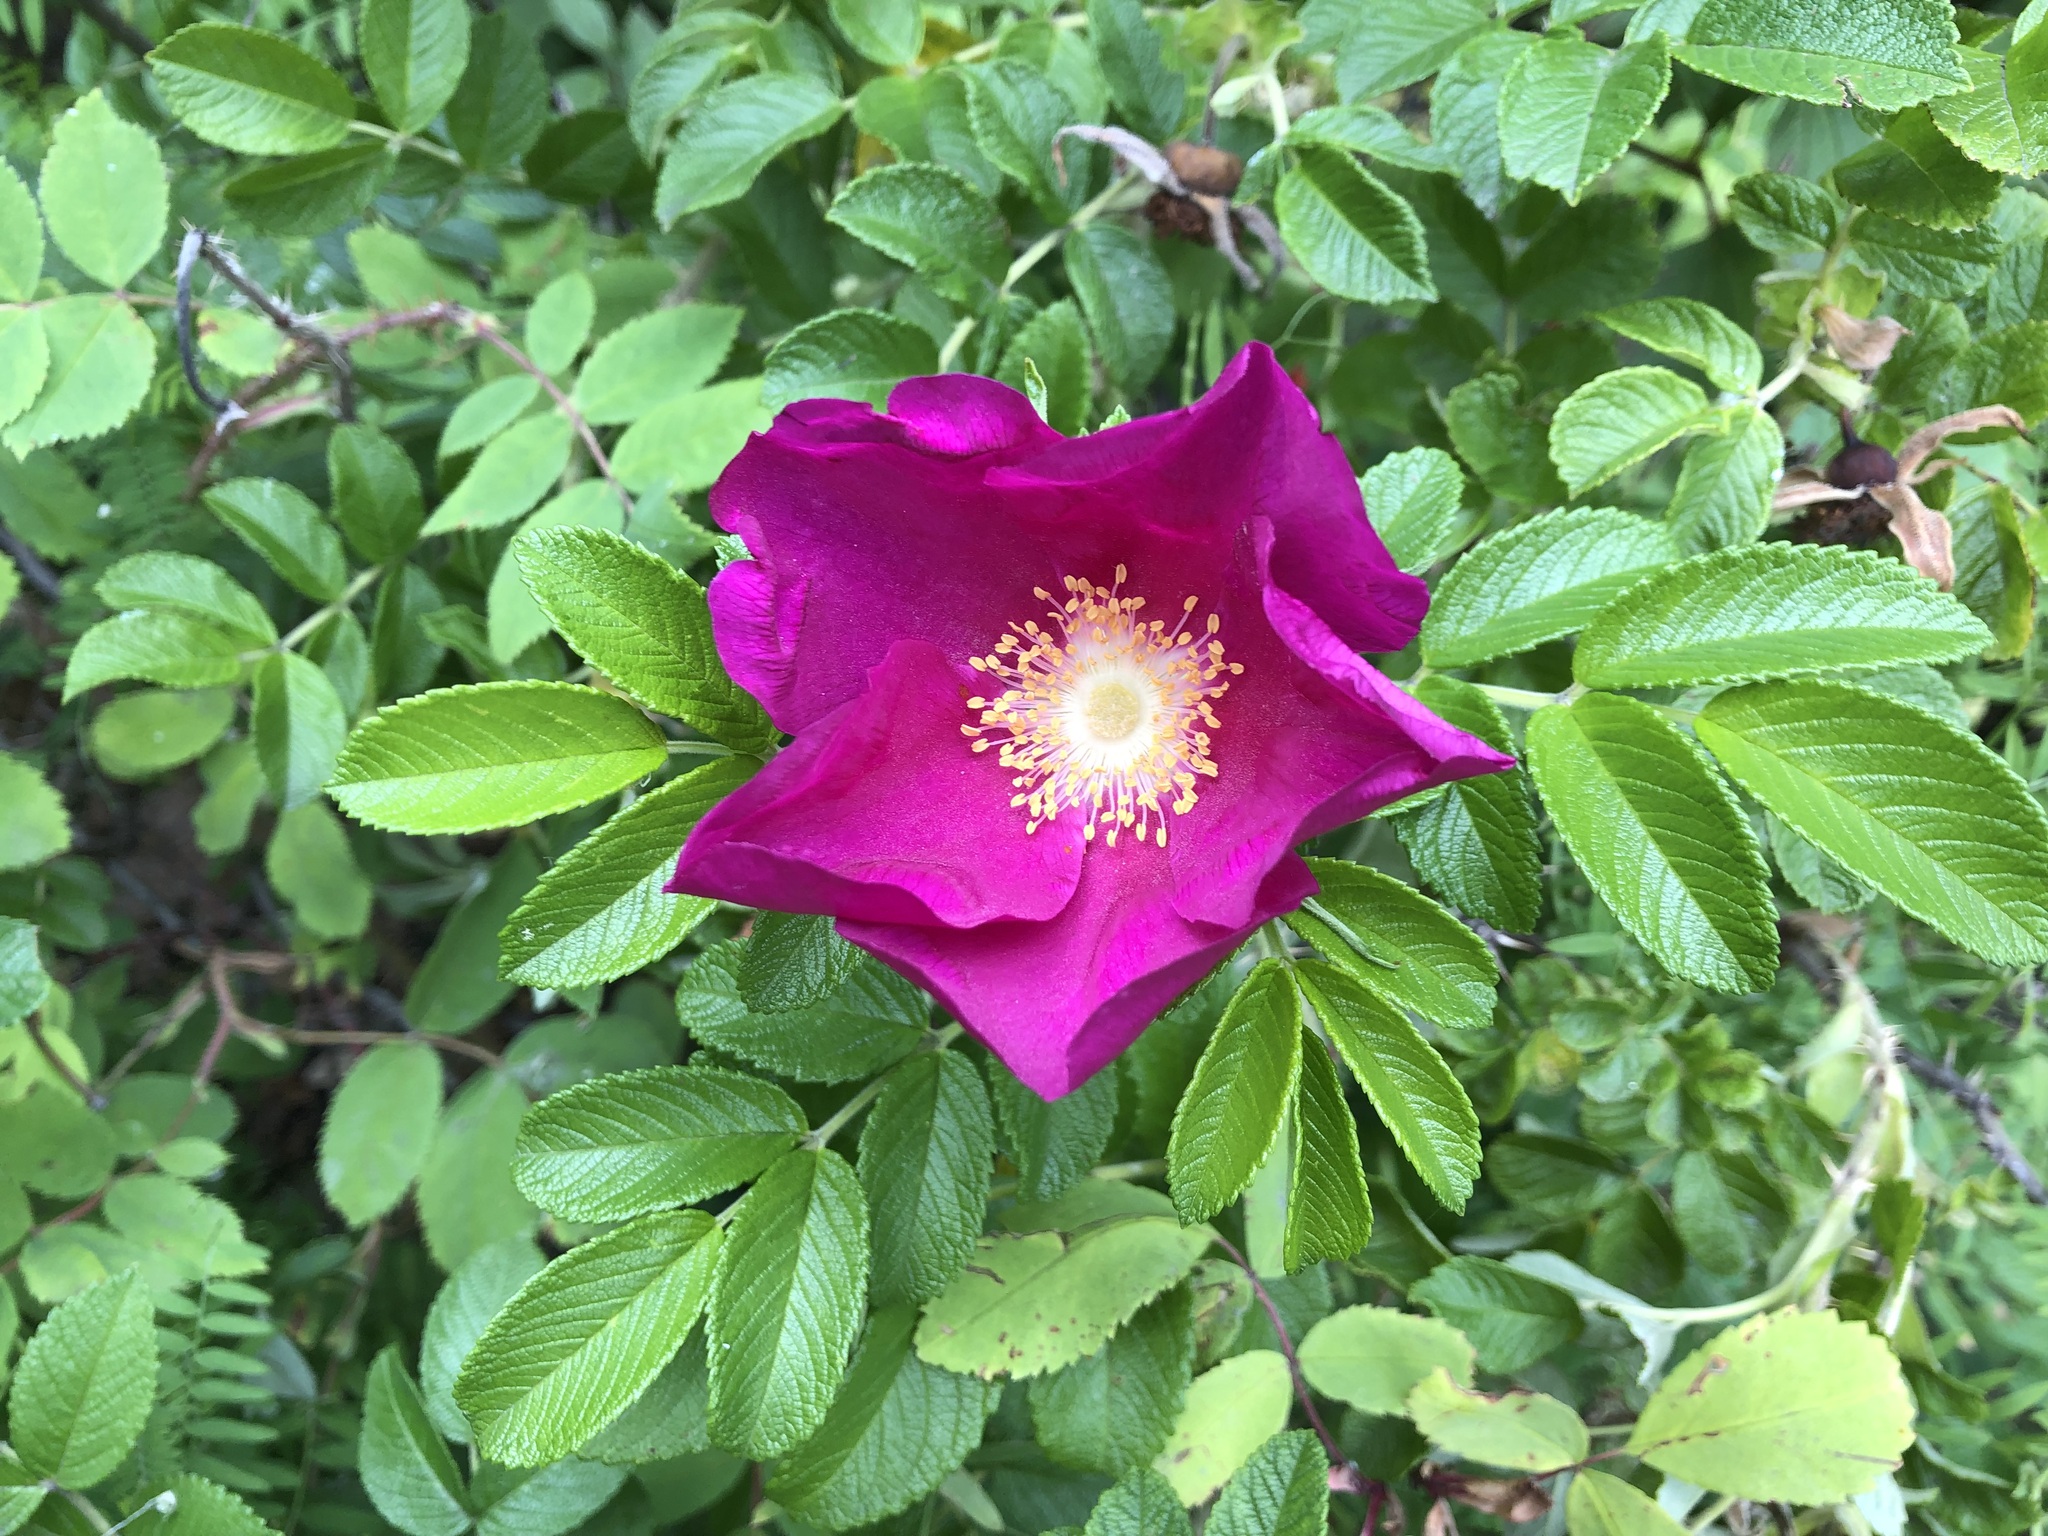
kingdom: Plantae
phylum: Tracheophyta
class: Magnoliopsida
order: Rosales
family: Rosaceae
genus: Rosa
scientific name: Rosa rugosa
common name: Japanese rose
